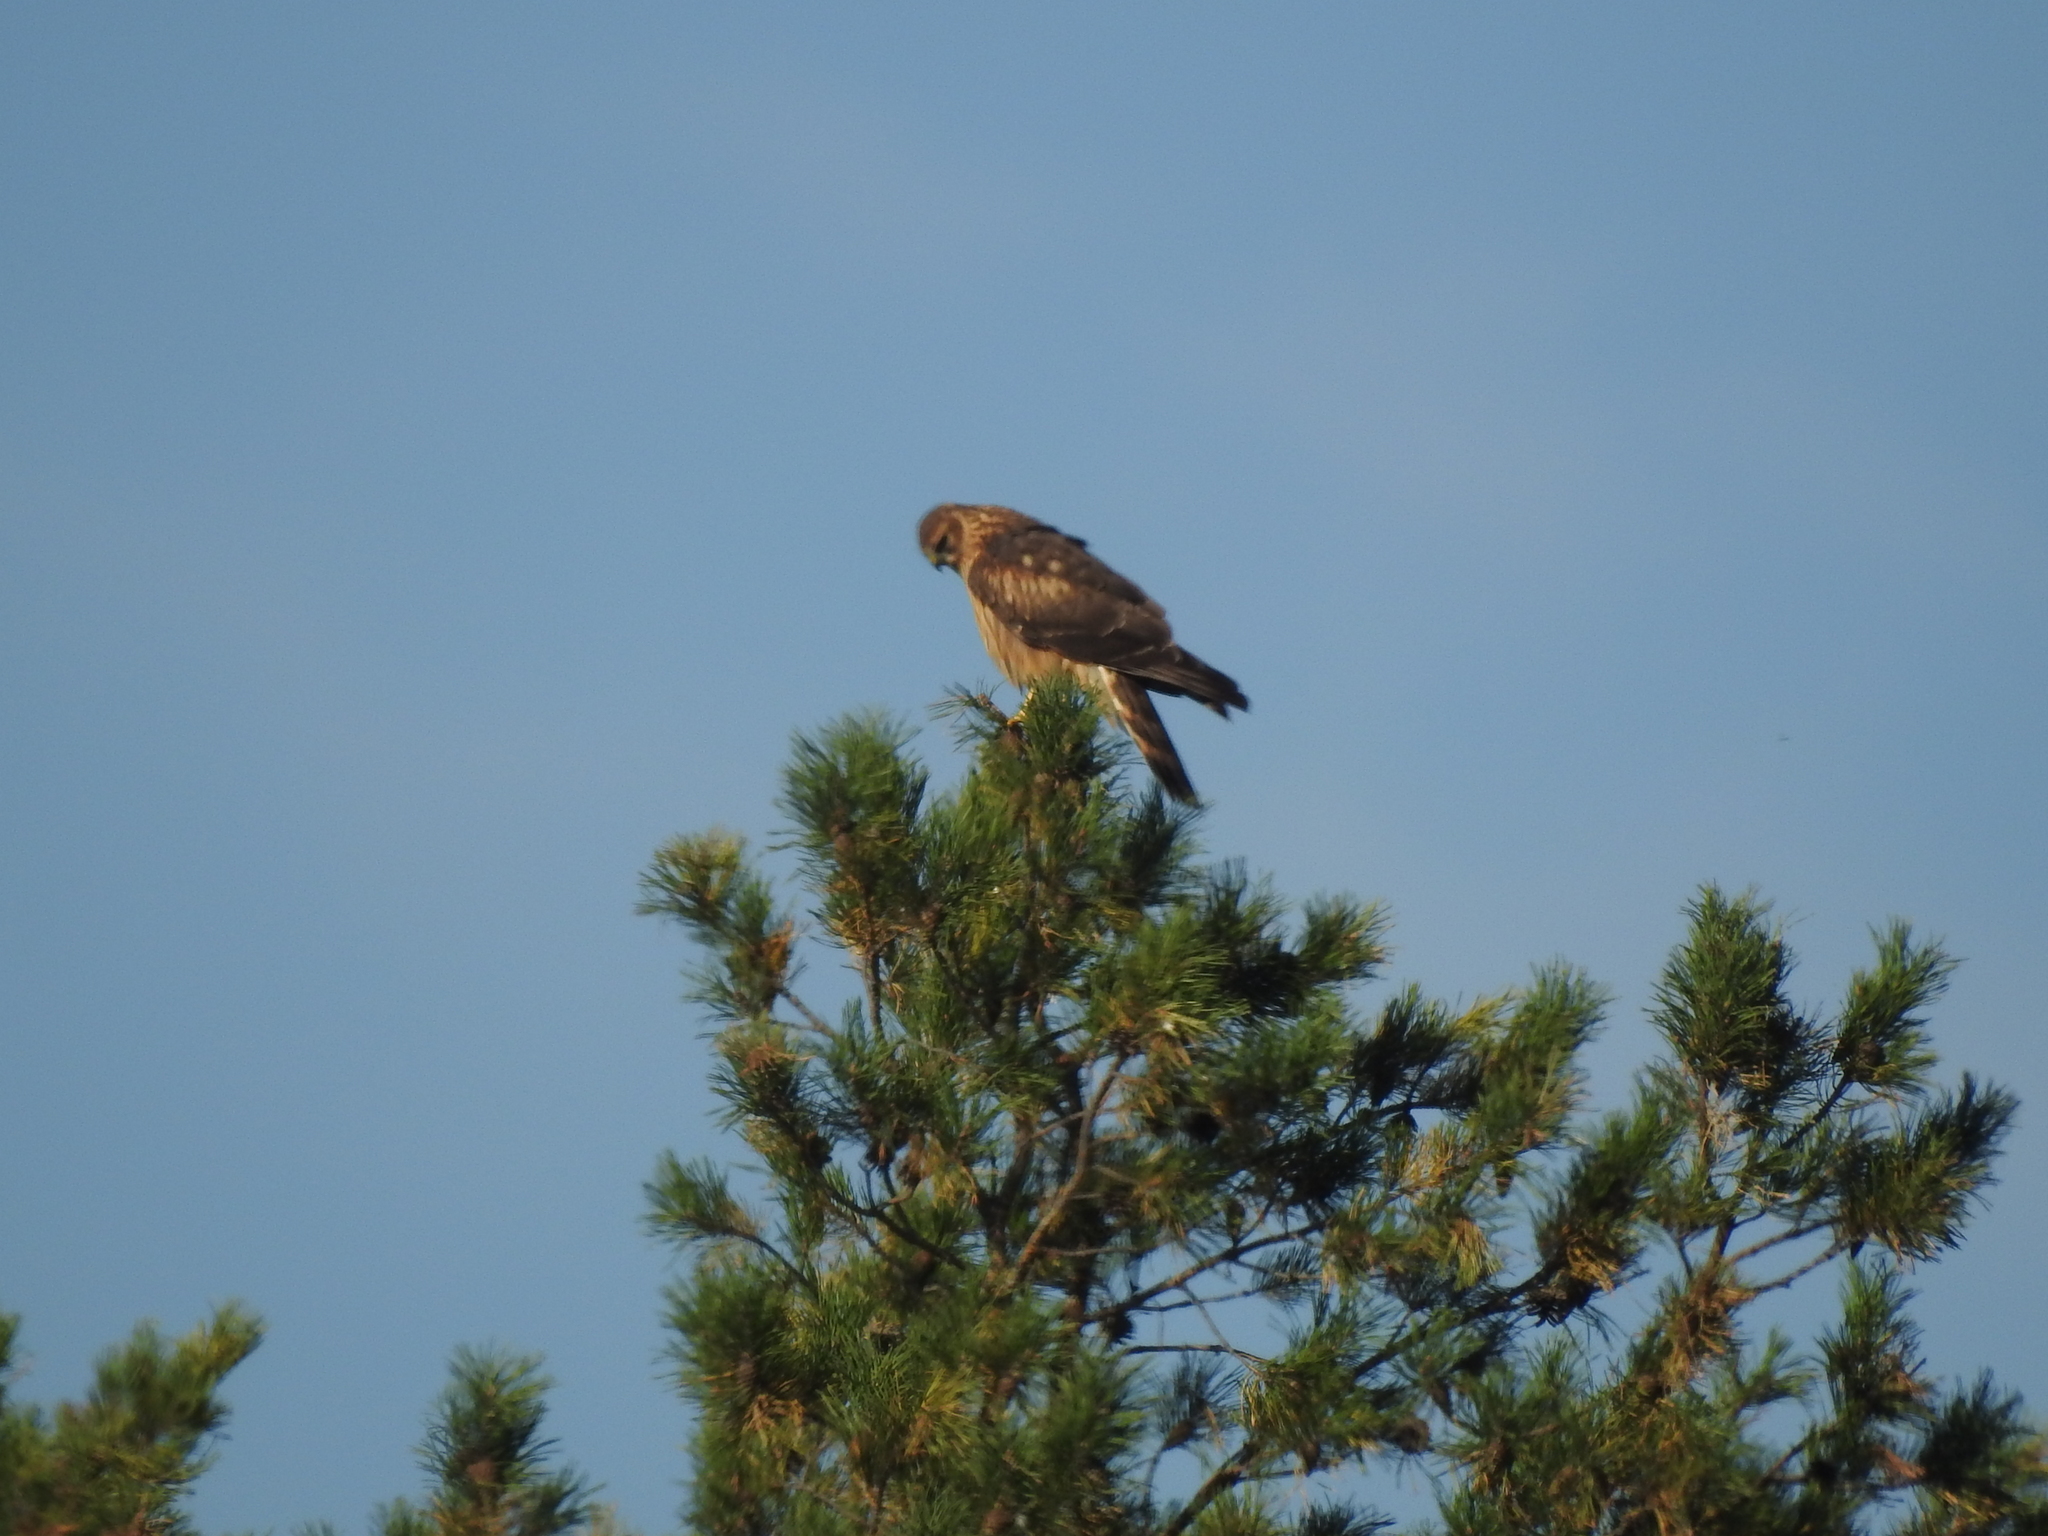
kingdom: Animalia
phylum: Chordata
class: Aves
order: Accipitriformes
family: Accipitridae
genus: Circus
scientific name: Circus cyaneus
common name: Hen harrier
